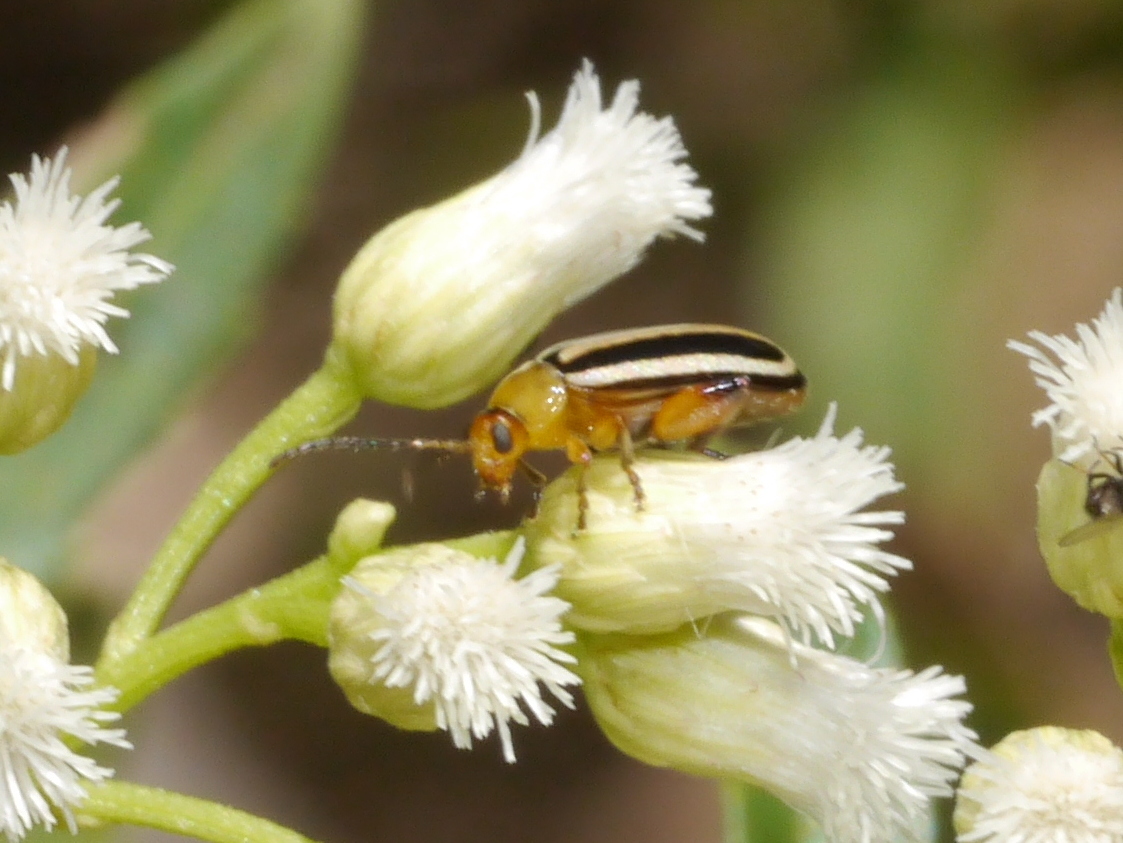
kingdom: Animalia
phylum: Arthropoda
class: Insecta
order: Coleoptera
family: Chrysomelidae
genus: Disonycha
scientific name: Disonycha glabrata
